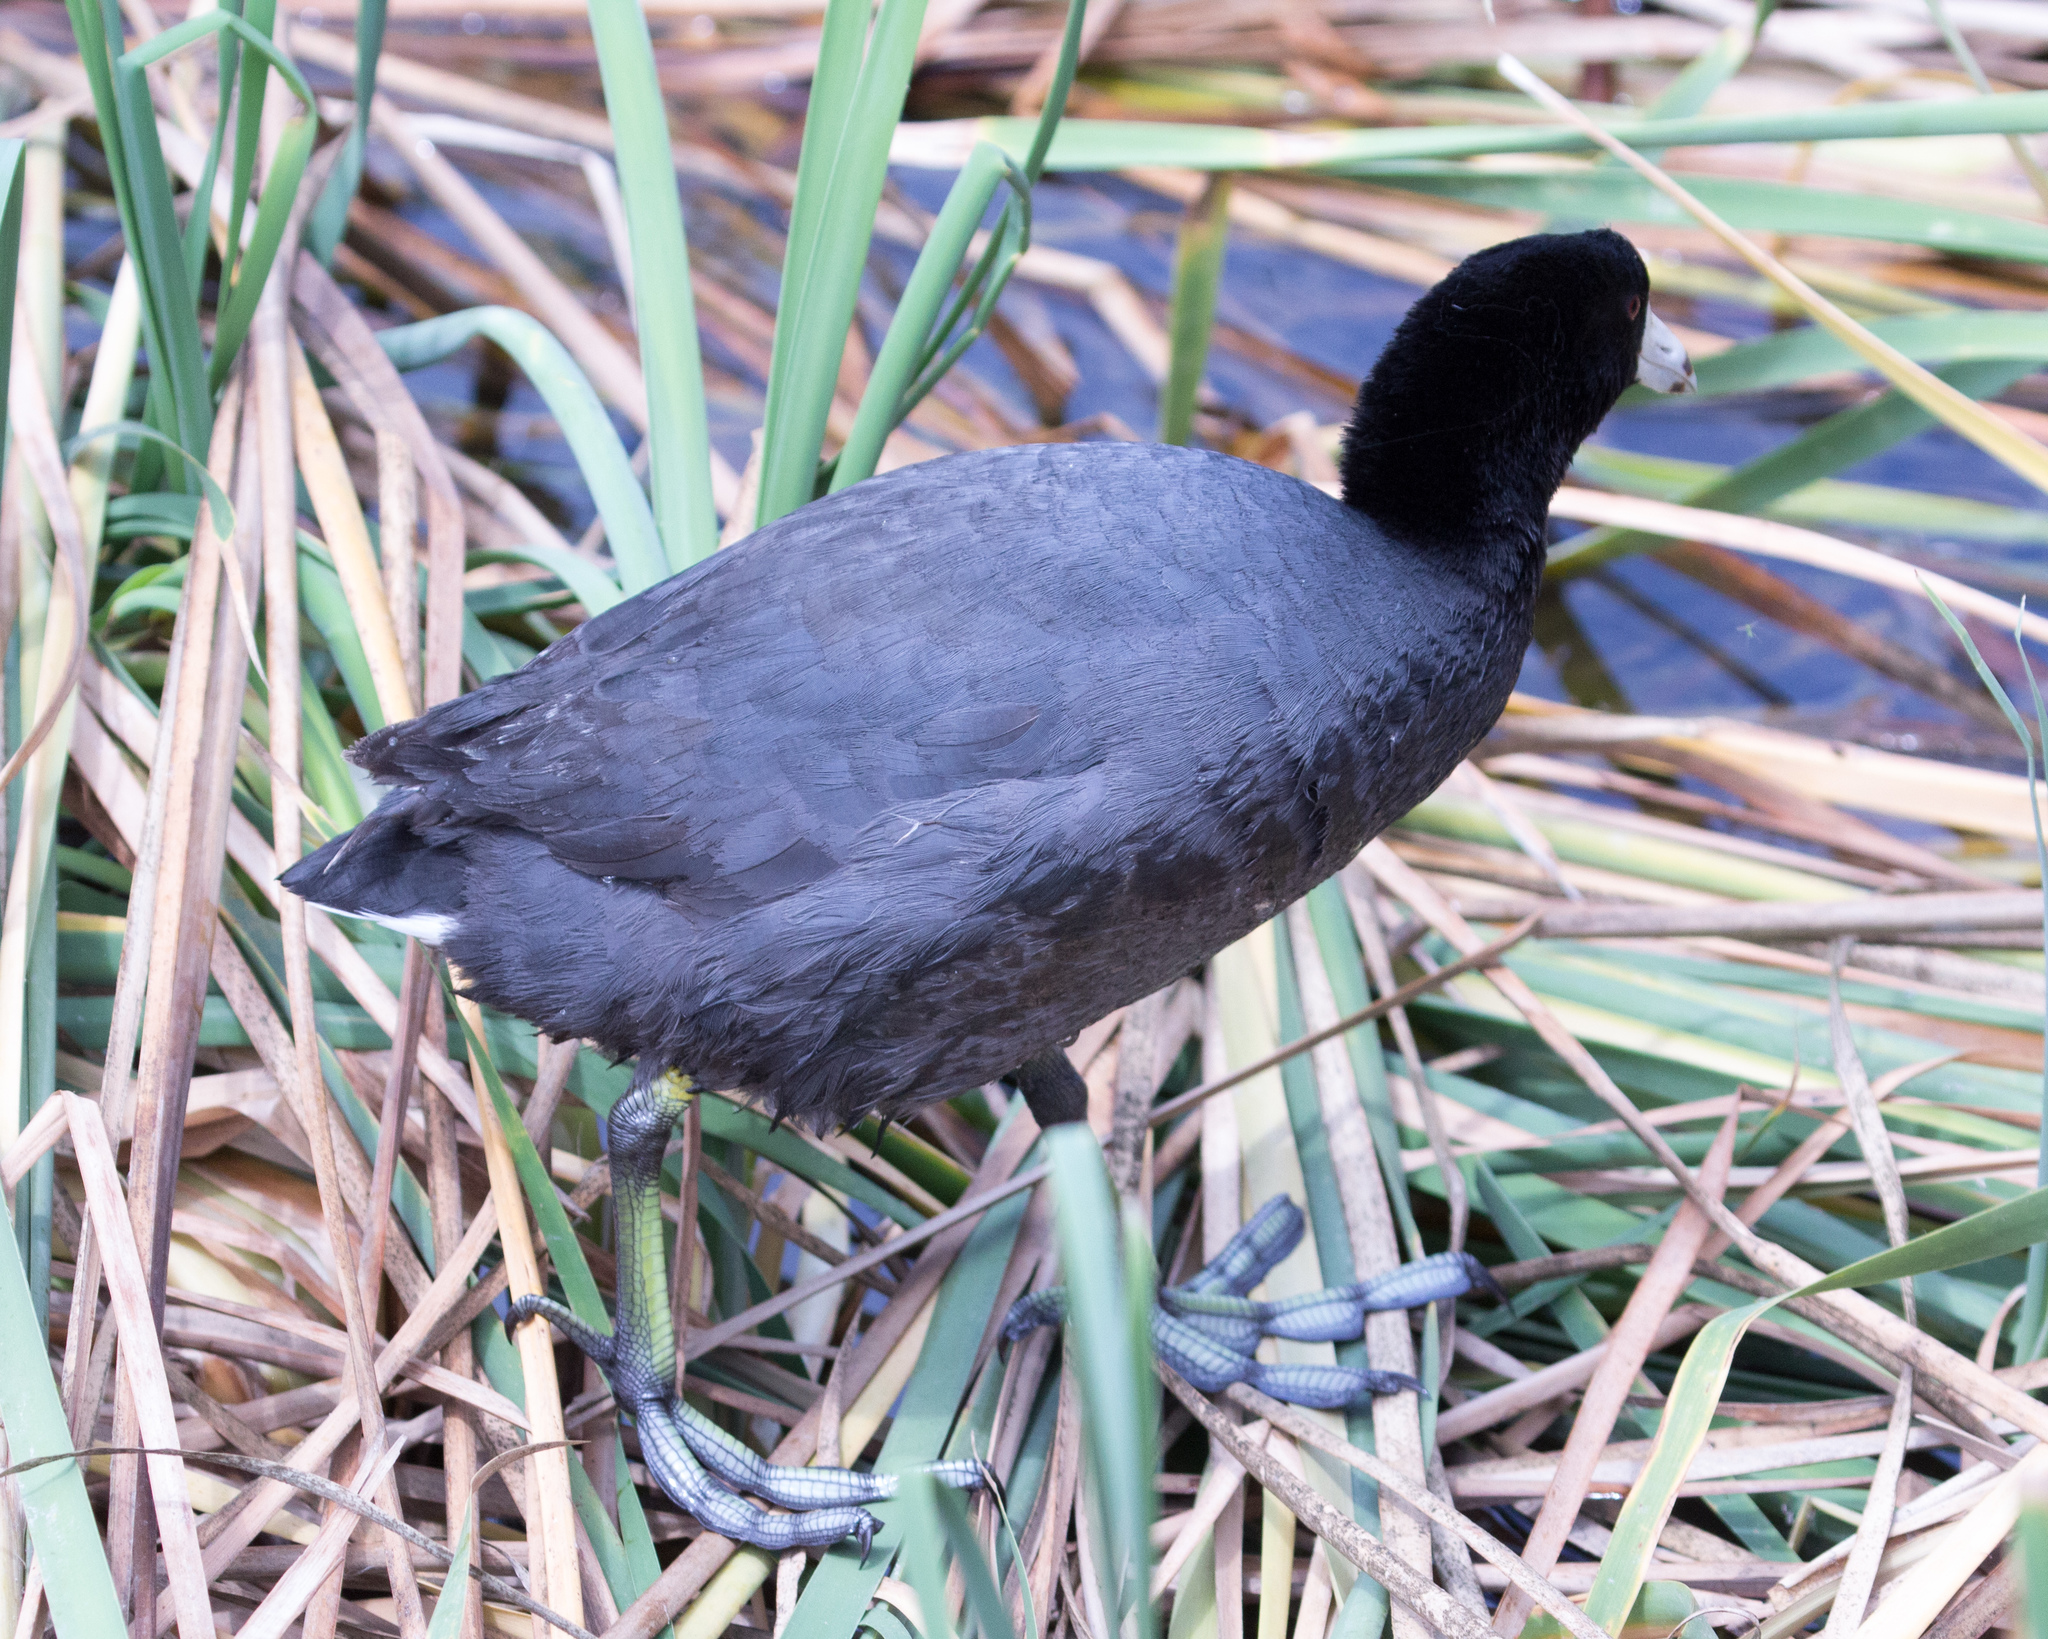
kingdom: Animalia
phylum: Chordata
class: Aves
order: Gruiformes
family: Rallidae
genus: Fulica
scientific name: Fulica americana
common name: American coot
